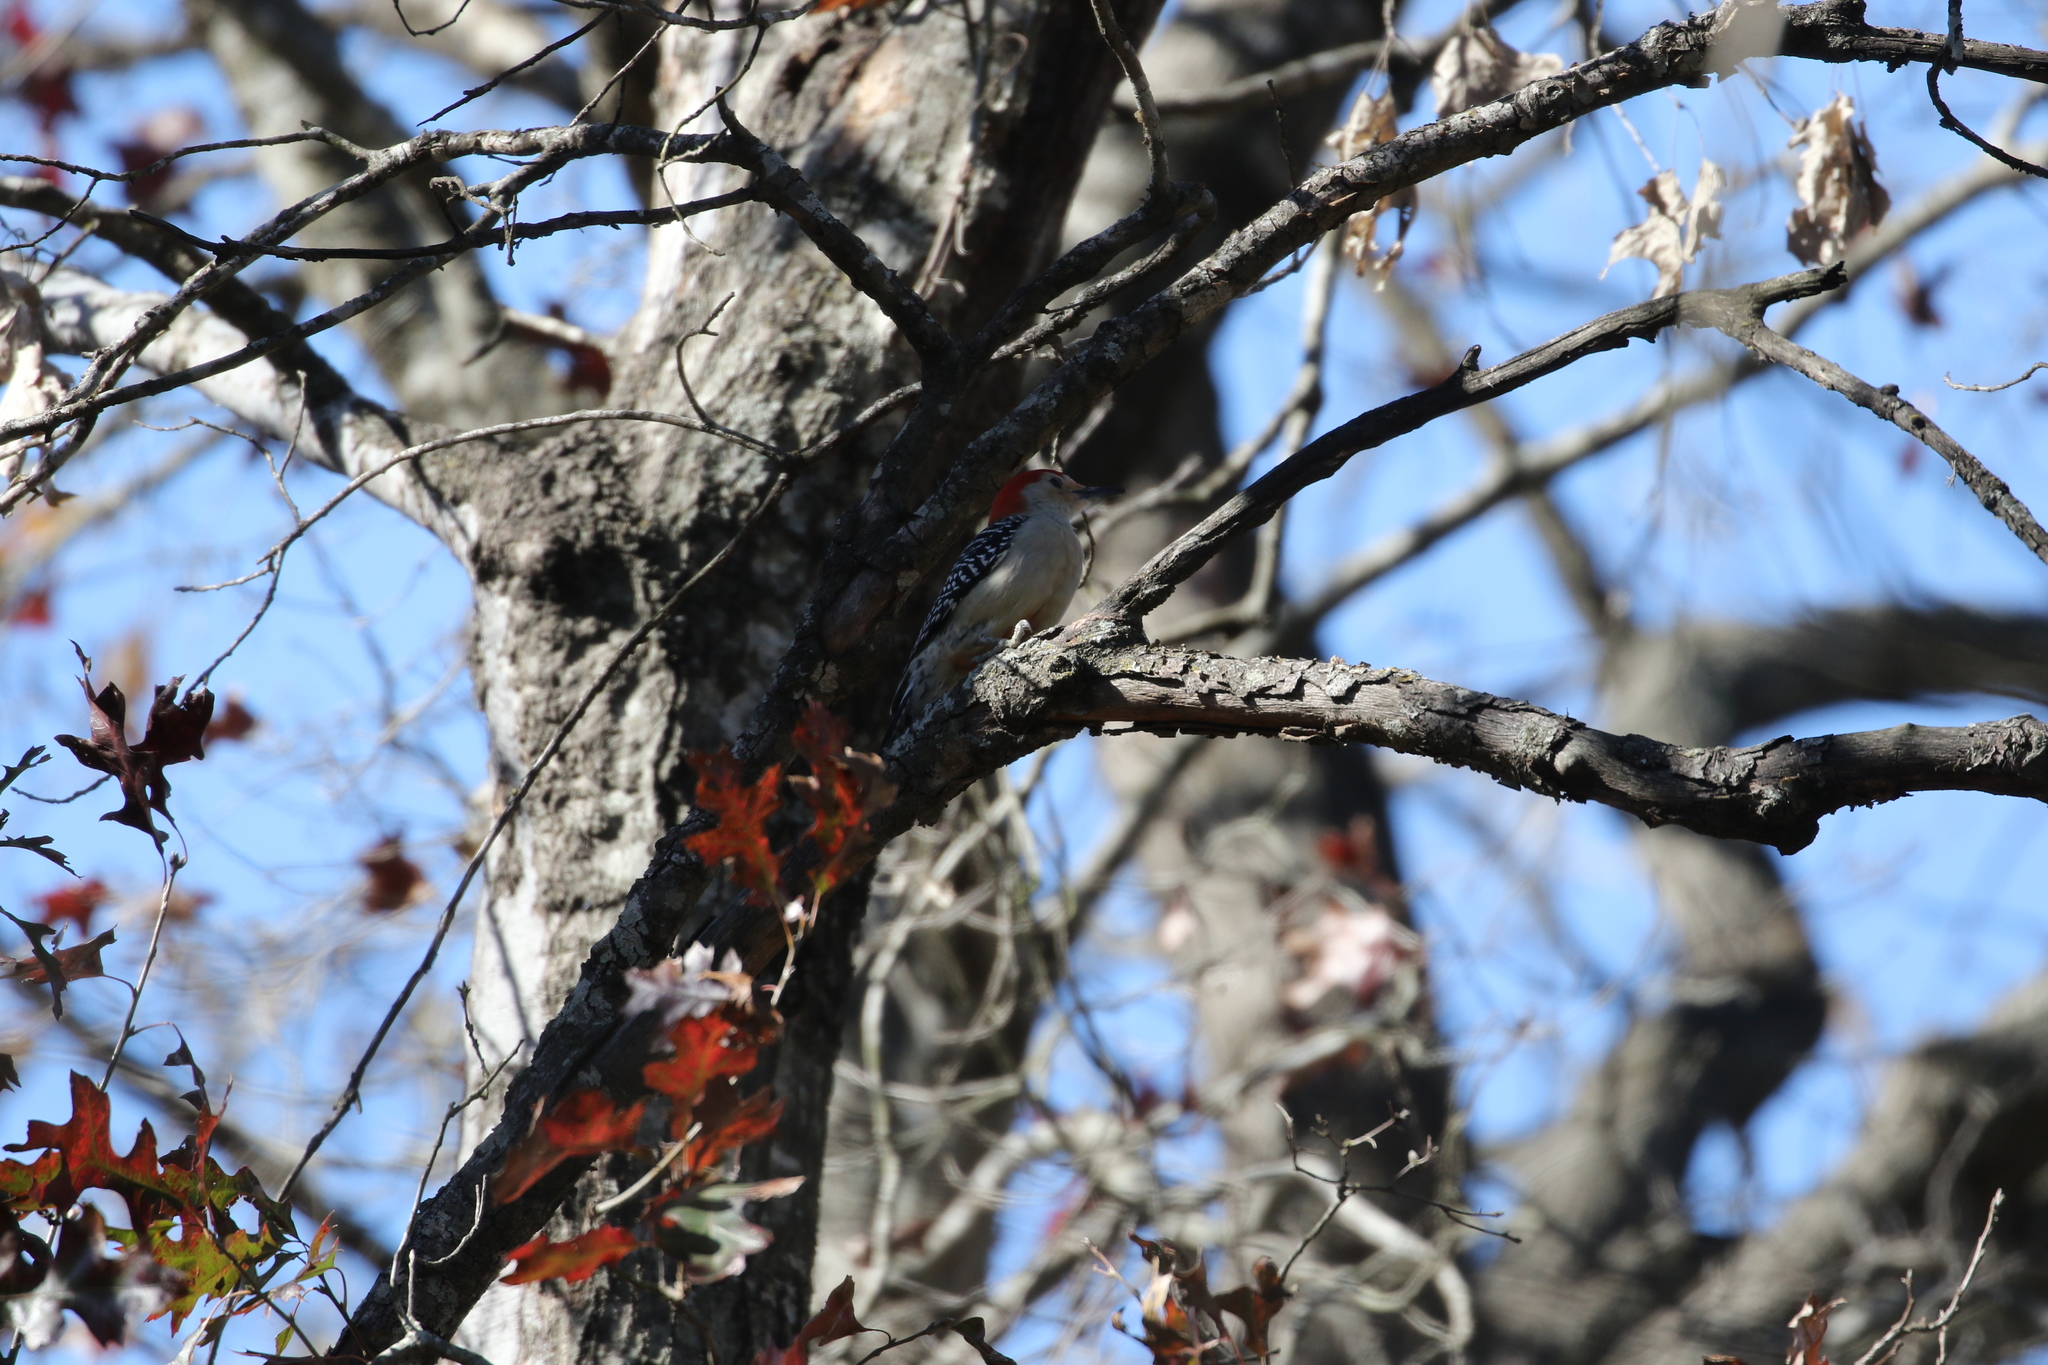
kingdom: Animalia
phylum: Chordata
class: Aves
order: Piciformes
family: Picidae
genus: Melanerpes
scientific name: Melanerpes carolinus
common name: Red-bellied woodpecker
